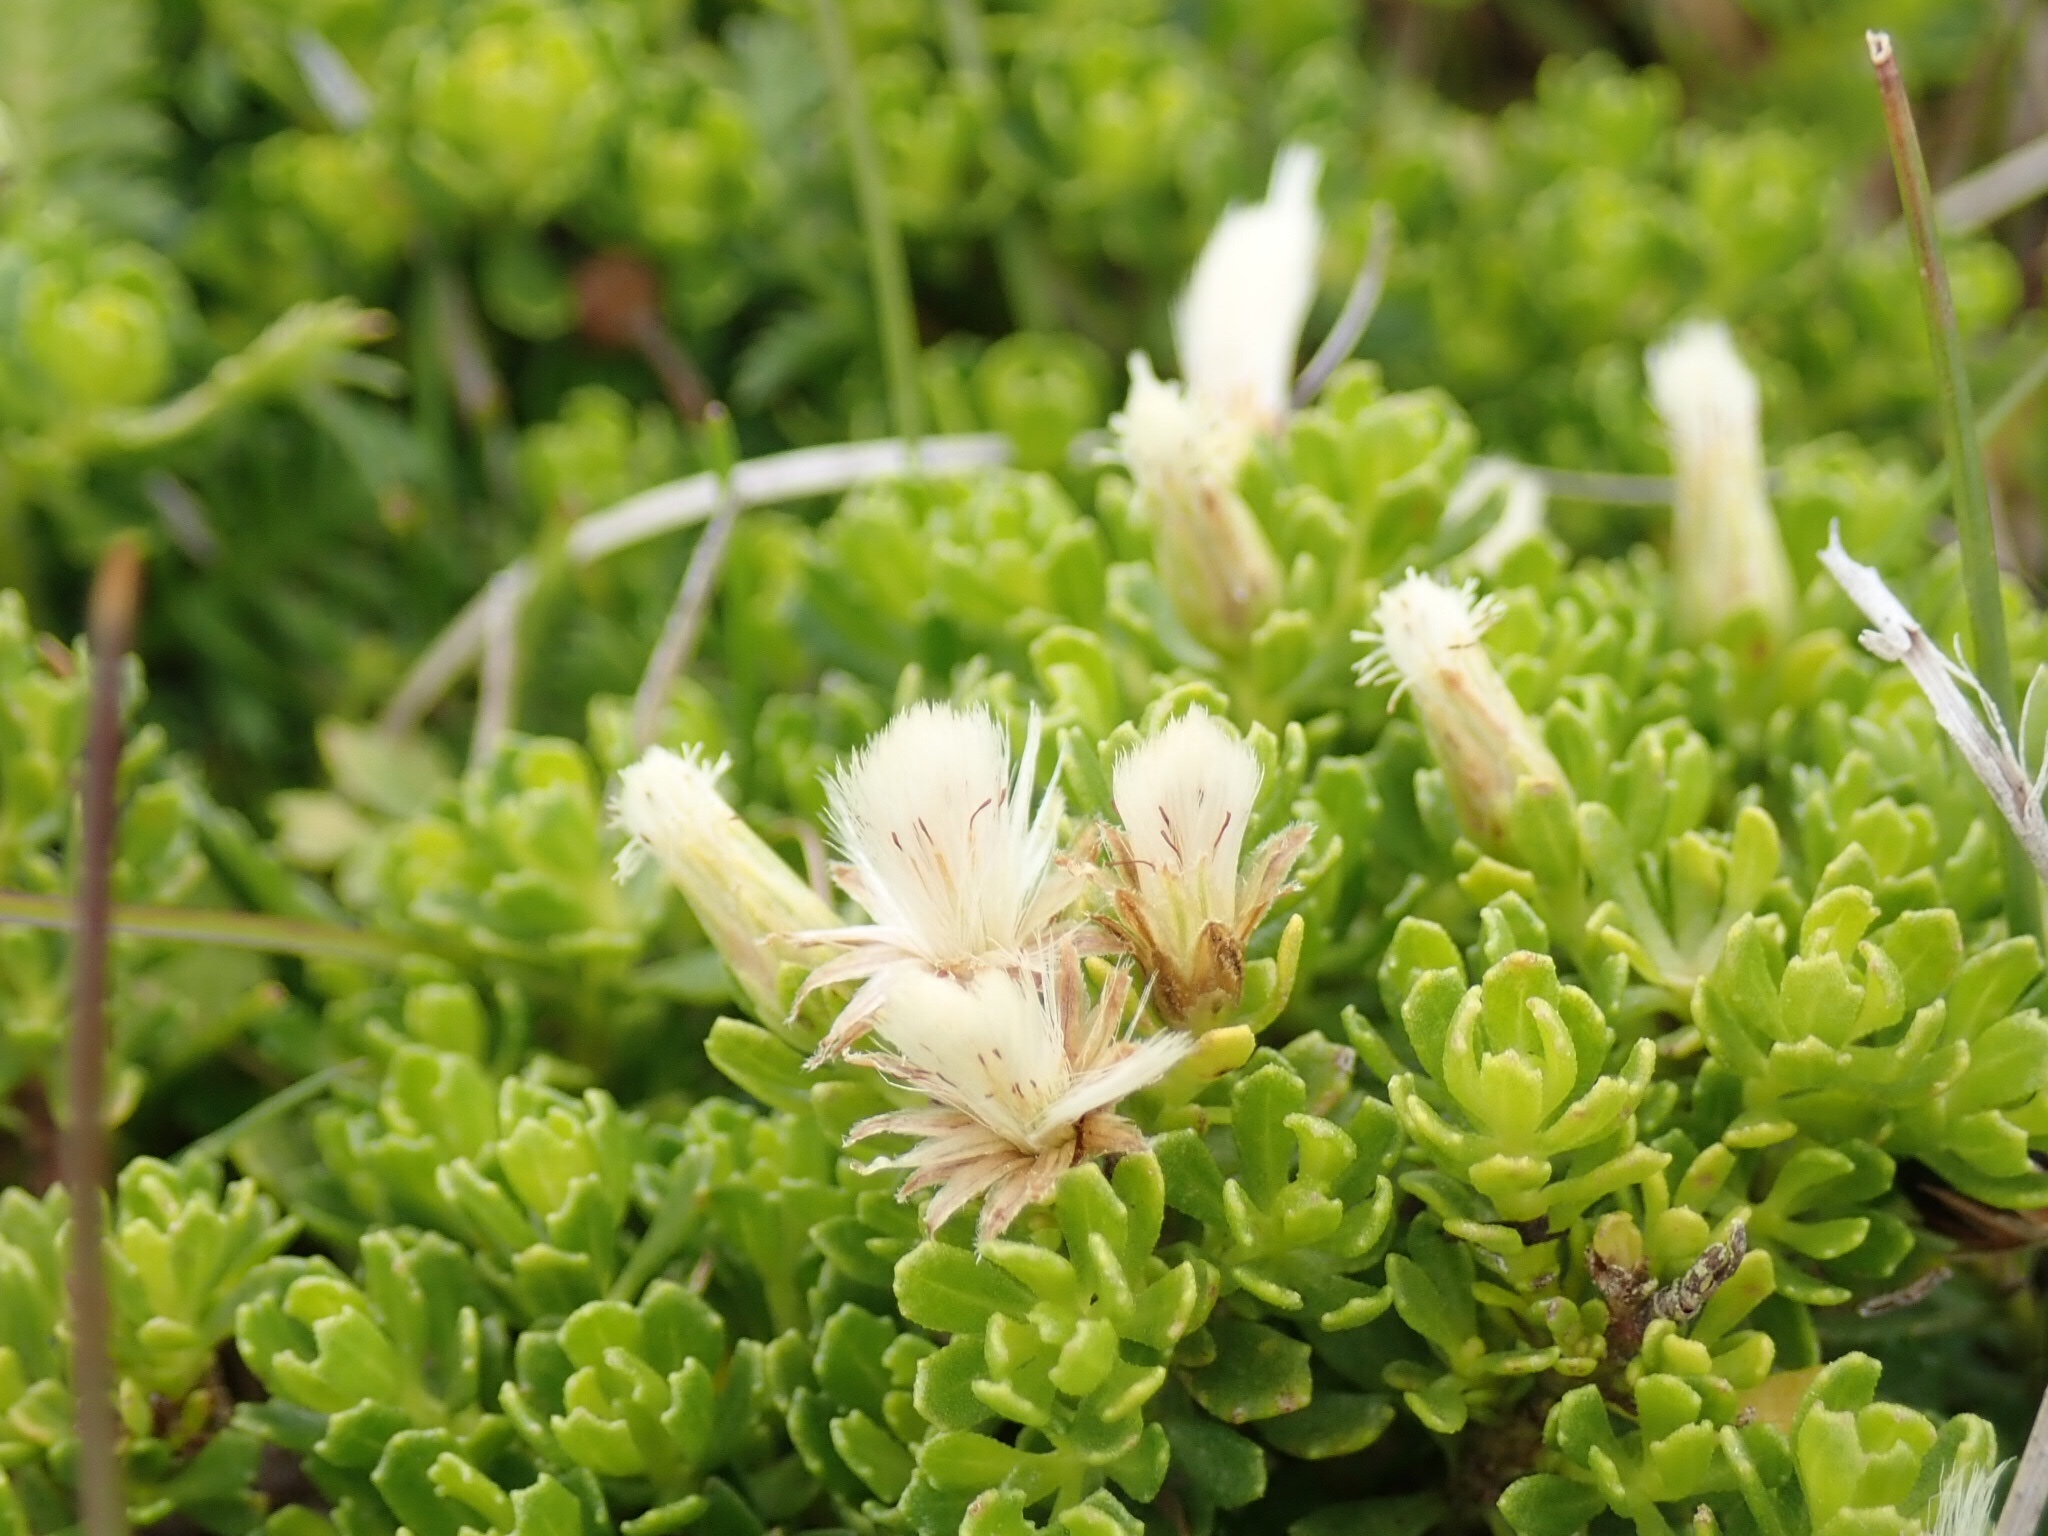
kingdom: Plantae
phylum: Tracheophyta
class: Magnoliopsida
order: Asterales
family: Asteraceae
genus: Baccharis
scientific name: Baccharis magellanica
